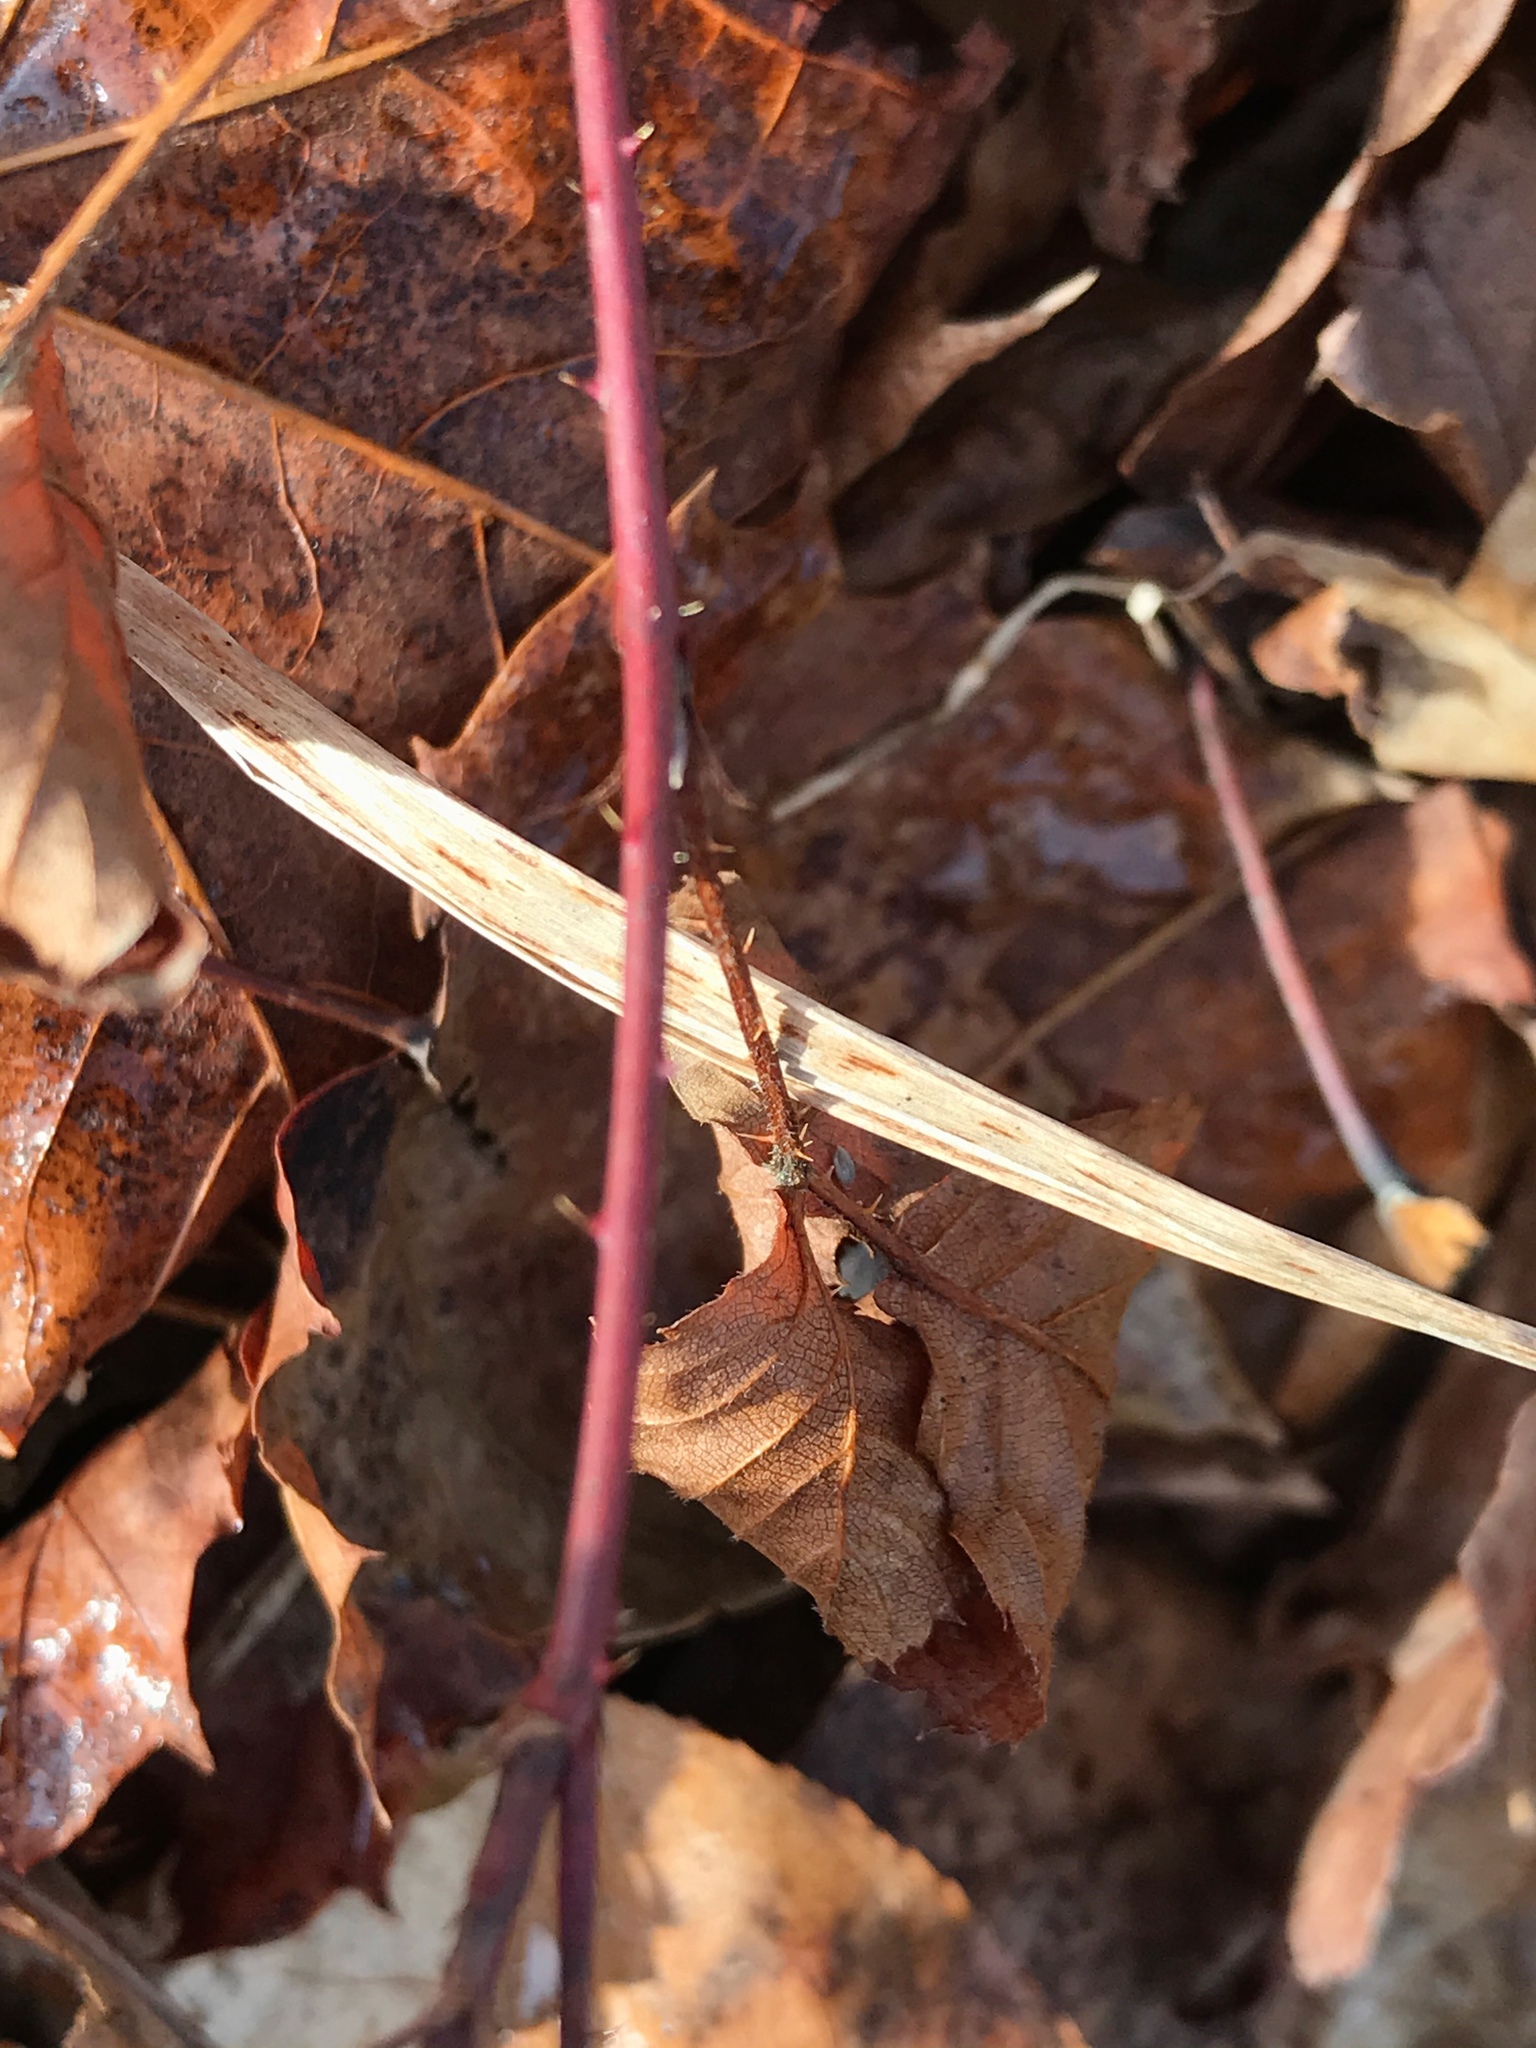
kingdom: Plantae
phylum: Tracheophyta
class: Magnoliopsida
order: Rosales
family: Rosaceae
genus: Rubus
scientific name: Rubus flagellaris
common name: American dewberry
